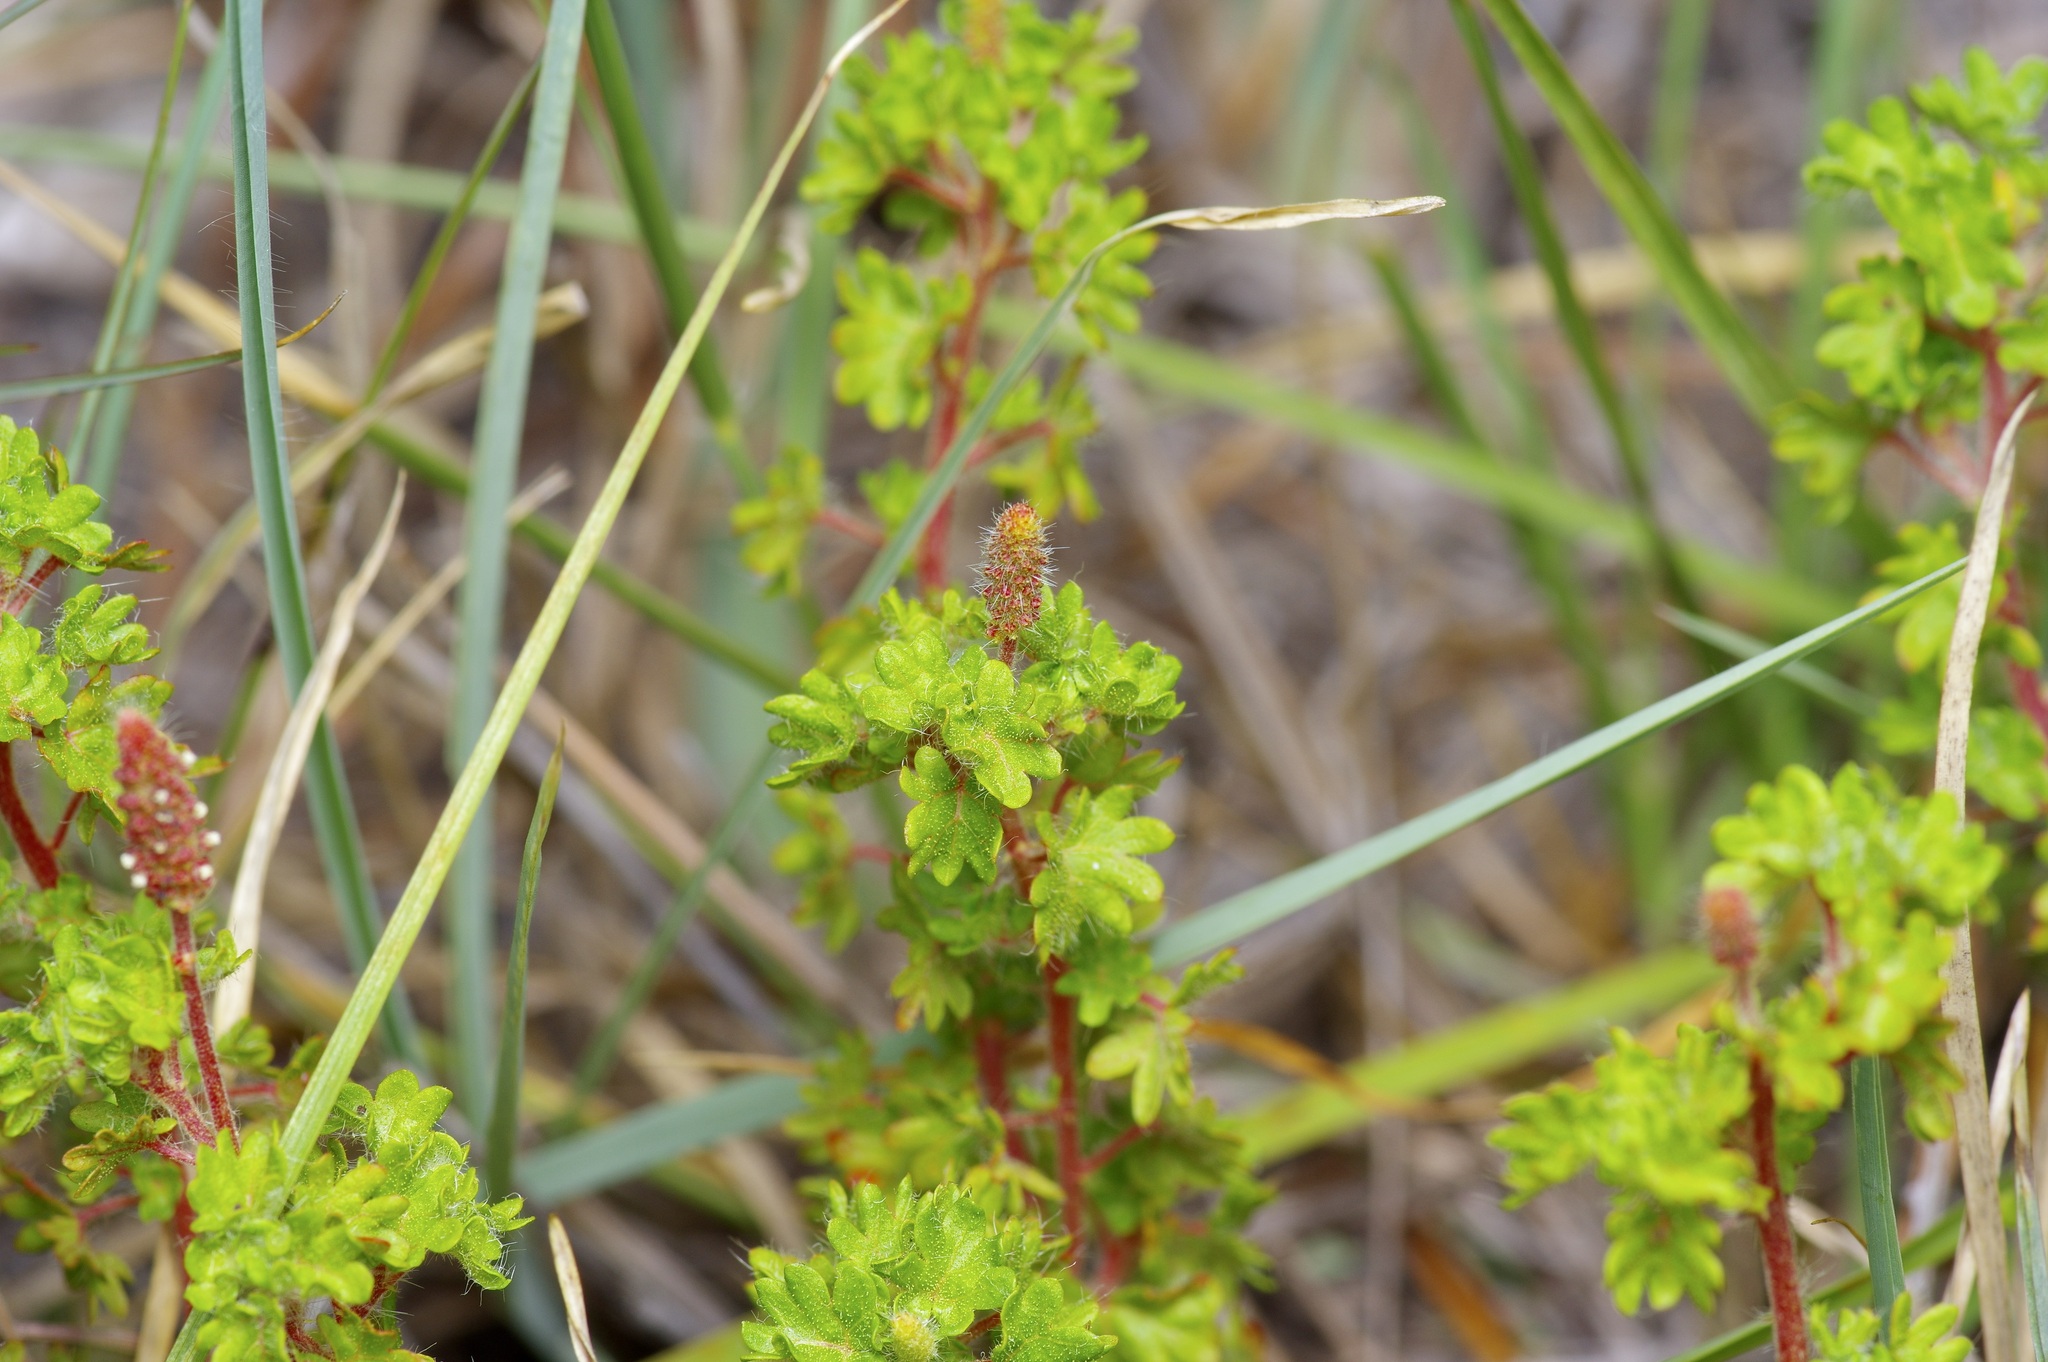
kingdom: Plantae
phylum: Tracheophyta
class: Magnoliopsida
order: Malpighiales
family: Euphorbiaceae
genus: Acalypha
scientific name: Acalypha radians
